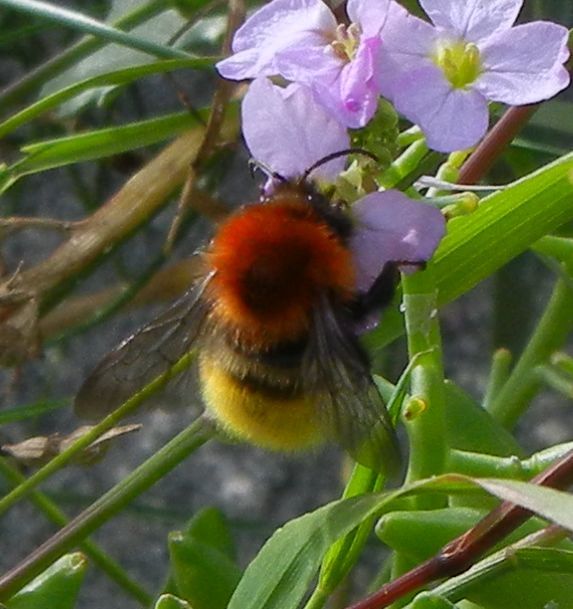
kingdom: Animalia
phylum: Arthropoda
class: Insecta
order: Hymenoptera
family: Apidae
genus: Bombus
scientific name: Bombus muscorum
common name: Moss carder-bee
